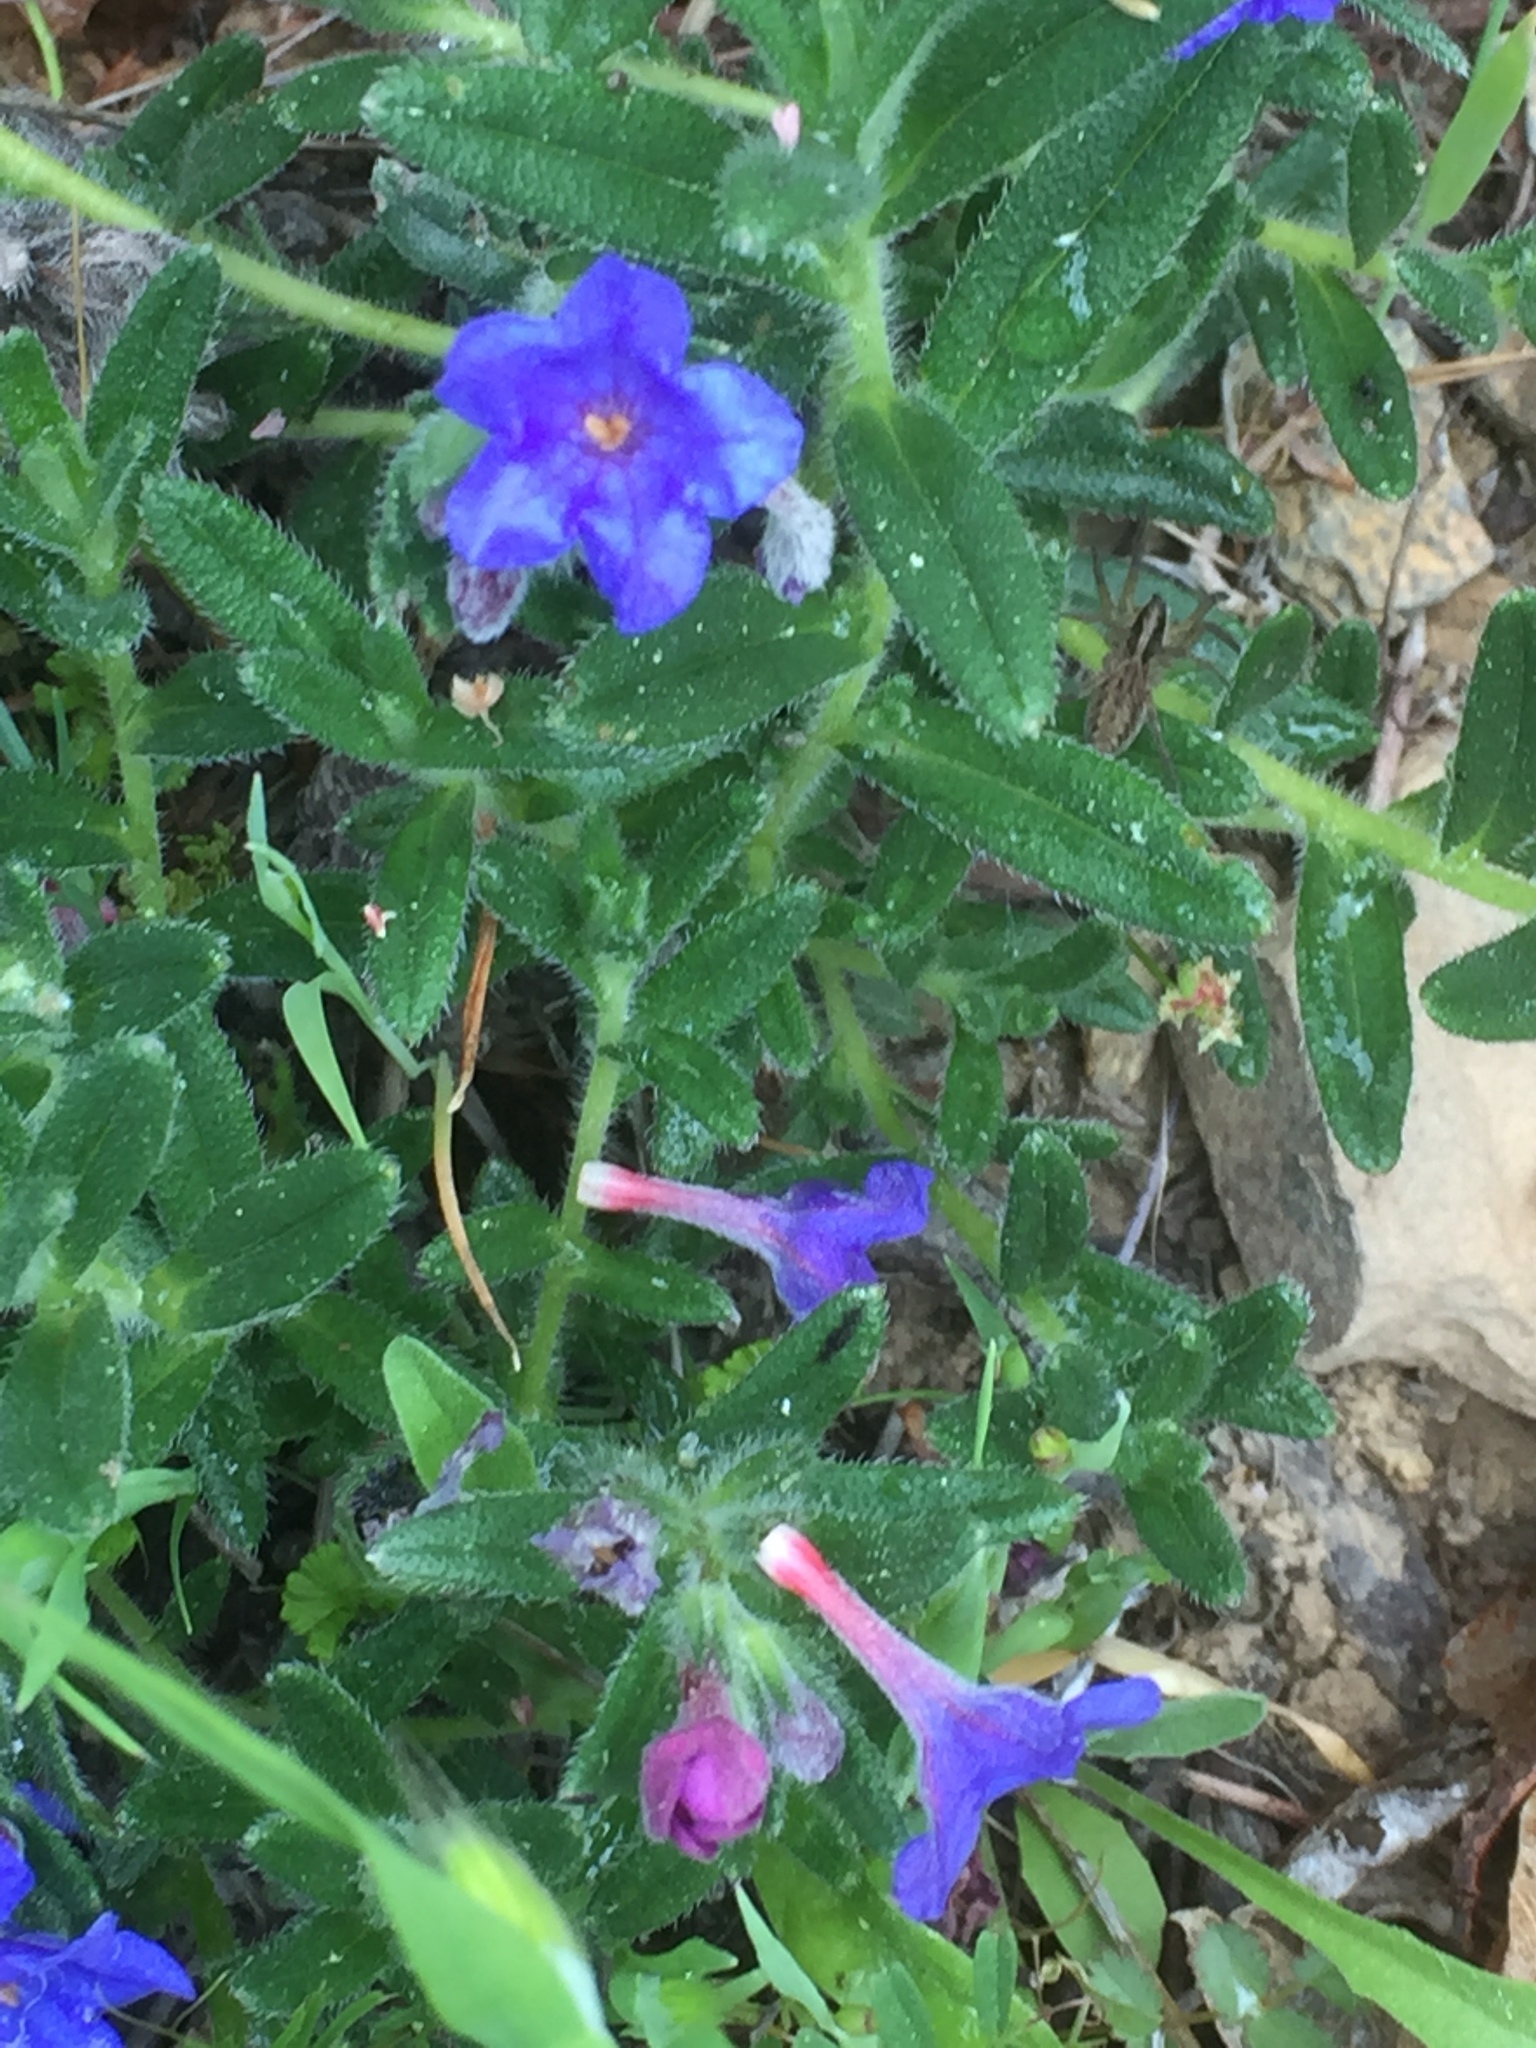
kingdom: Plantae
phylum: Tracheophyta
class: Magnoliopsida
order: Boraginales
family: Boraginaceae
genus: Glandora
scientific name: Glandora prostrata
